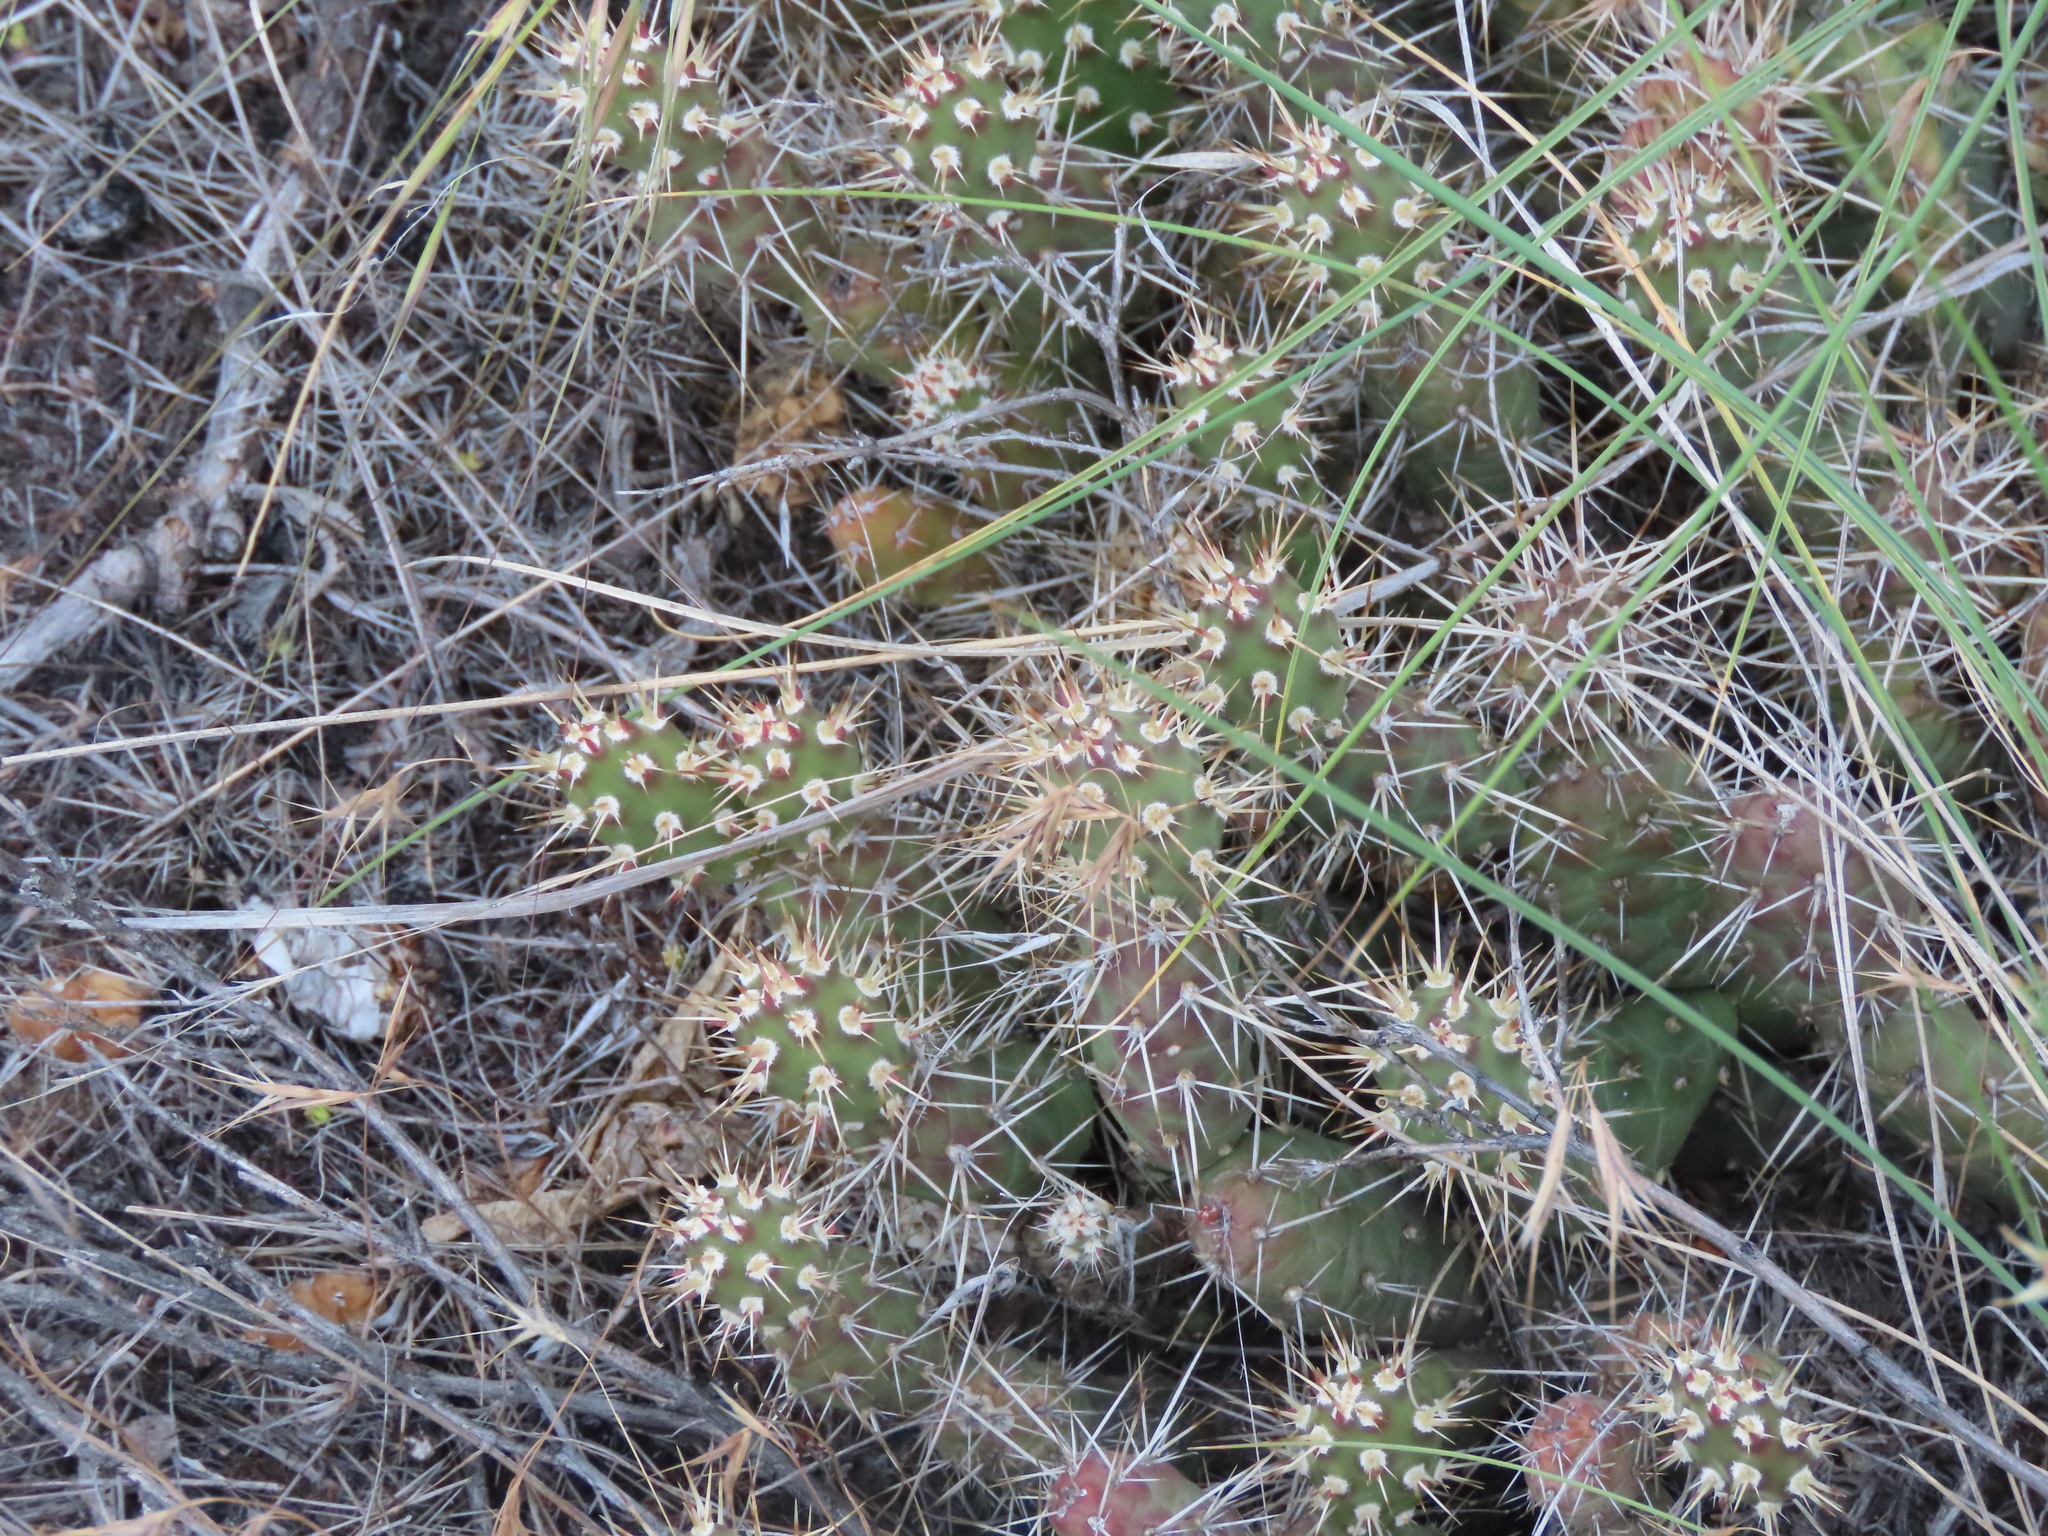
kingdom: Plantae
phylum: Tracheophyta
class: Magnoliopsida
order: Caryophyllales
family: Cactaceae
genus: Opuntia
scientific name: Opuntia fragilis
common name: Brittle cactus
